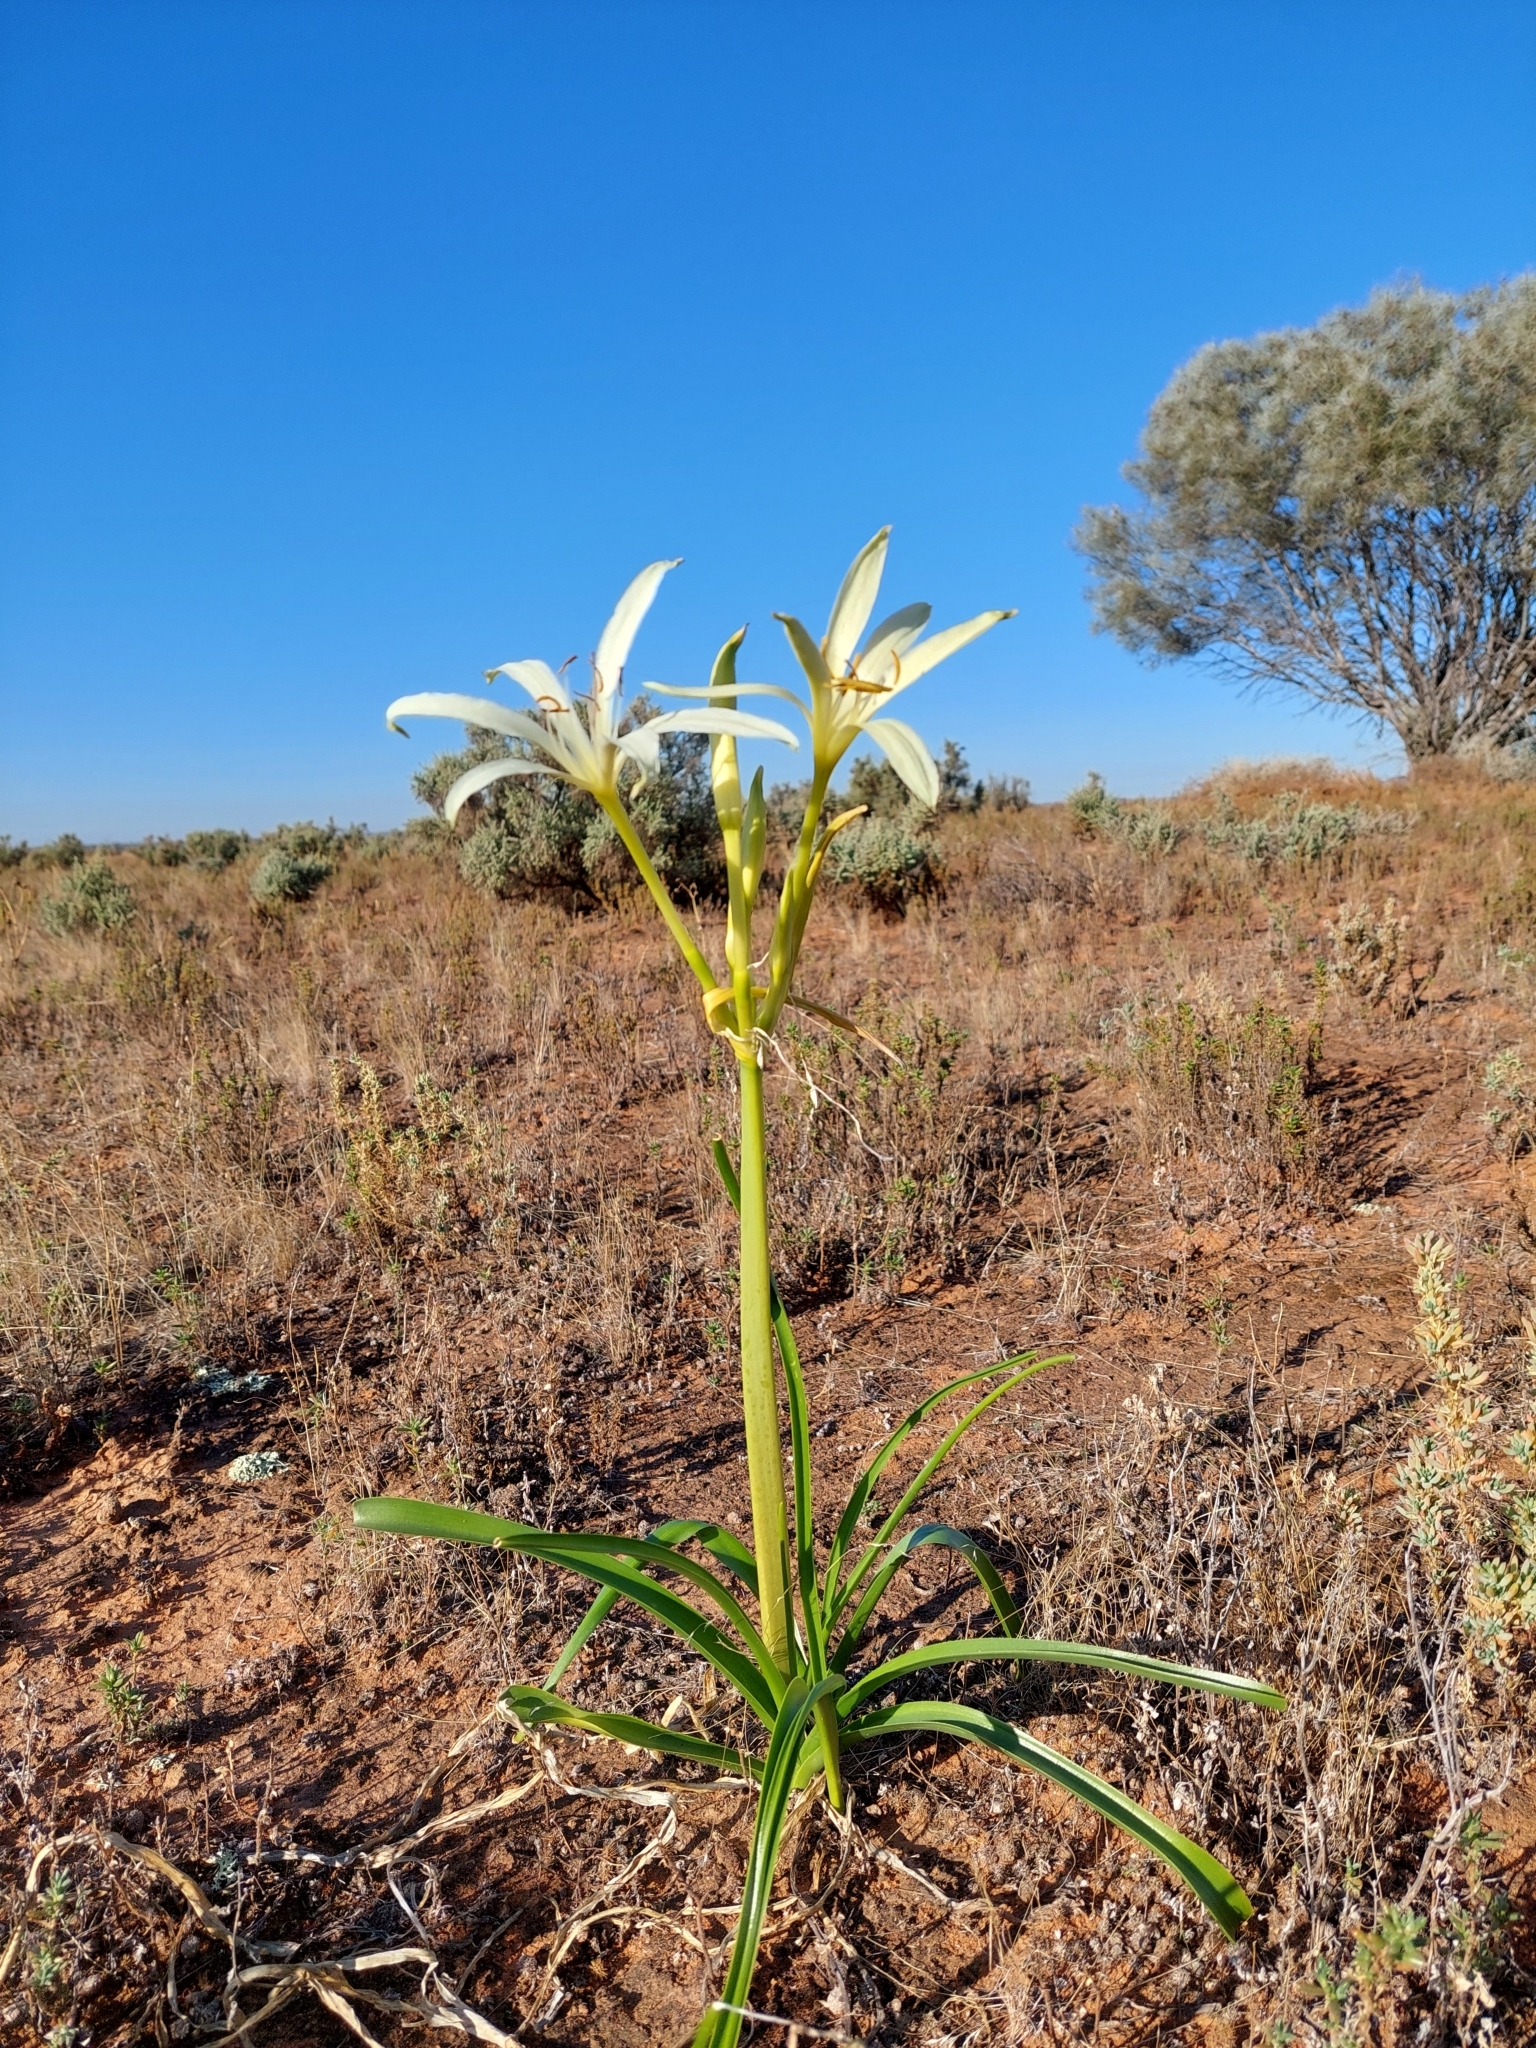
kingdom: Plantae
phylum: Tracheophyta
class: Liliopsida
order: Asparagales
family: Amaryllidaceae
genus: Crinum
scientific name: Crinum flaccidum
